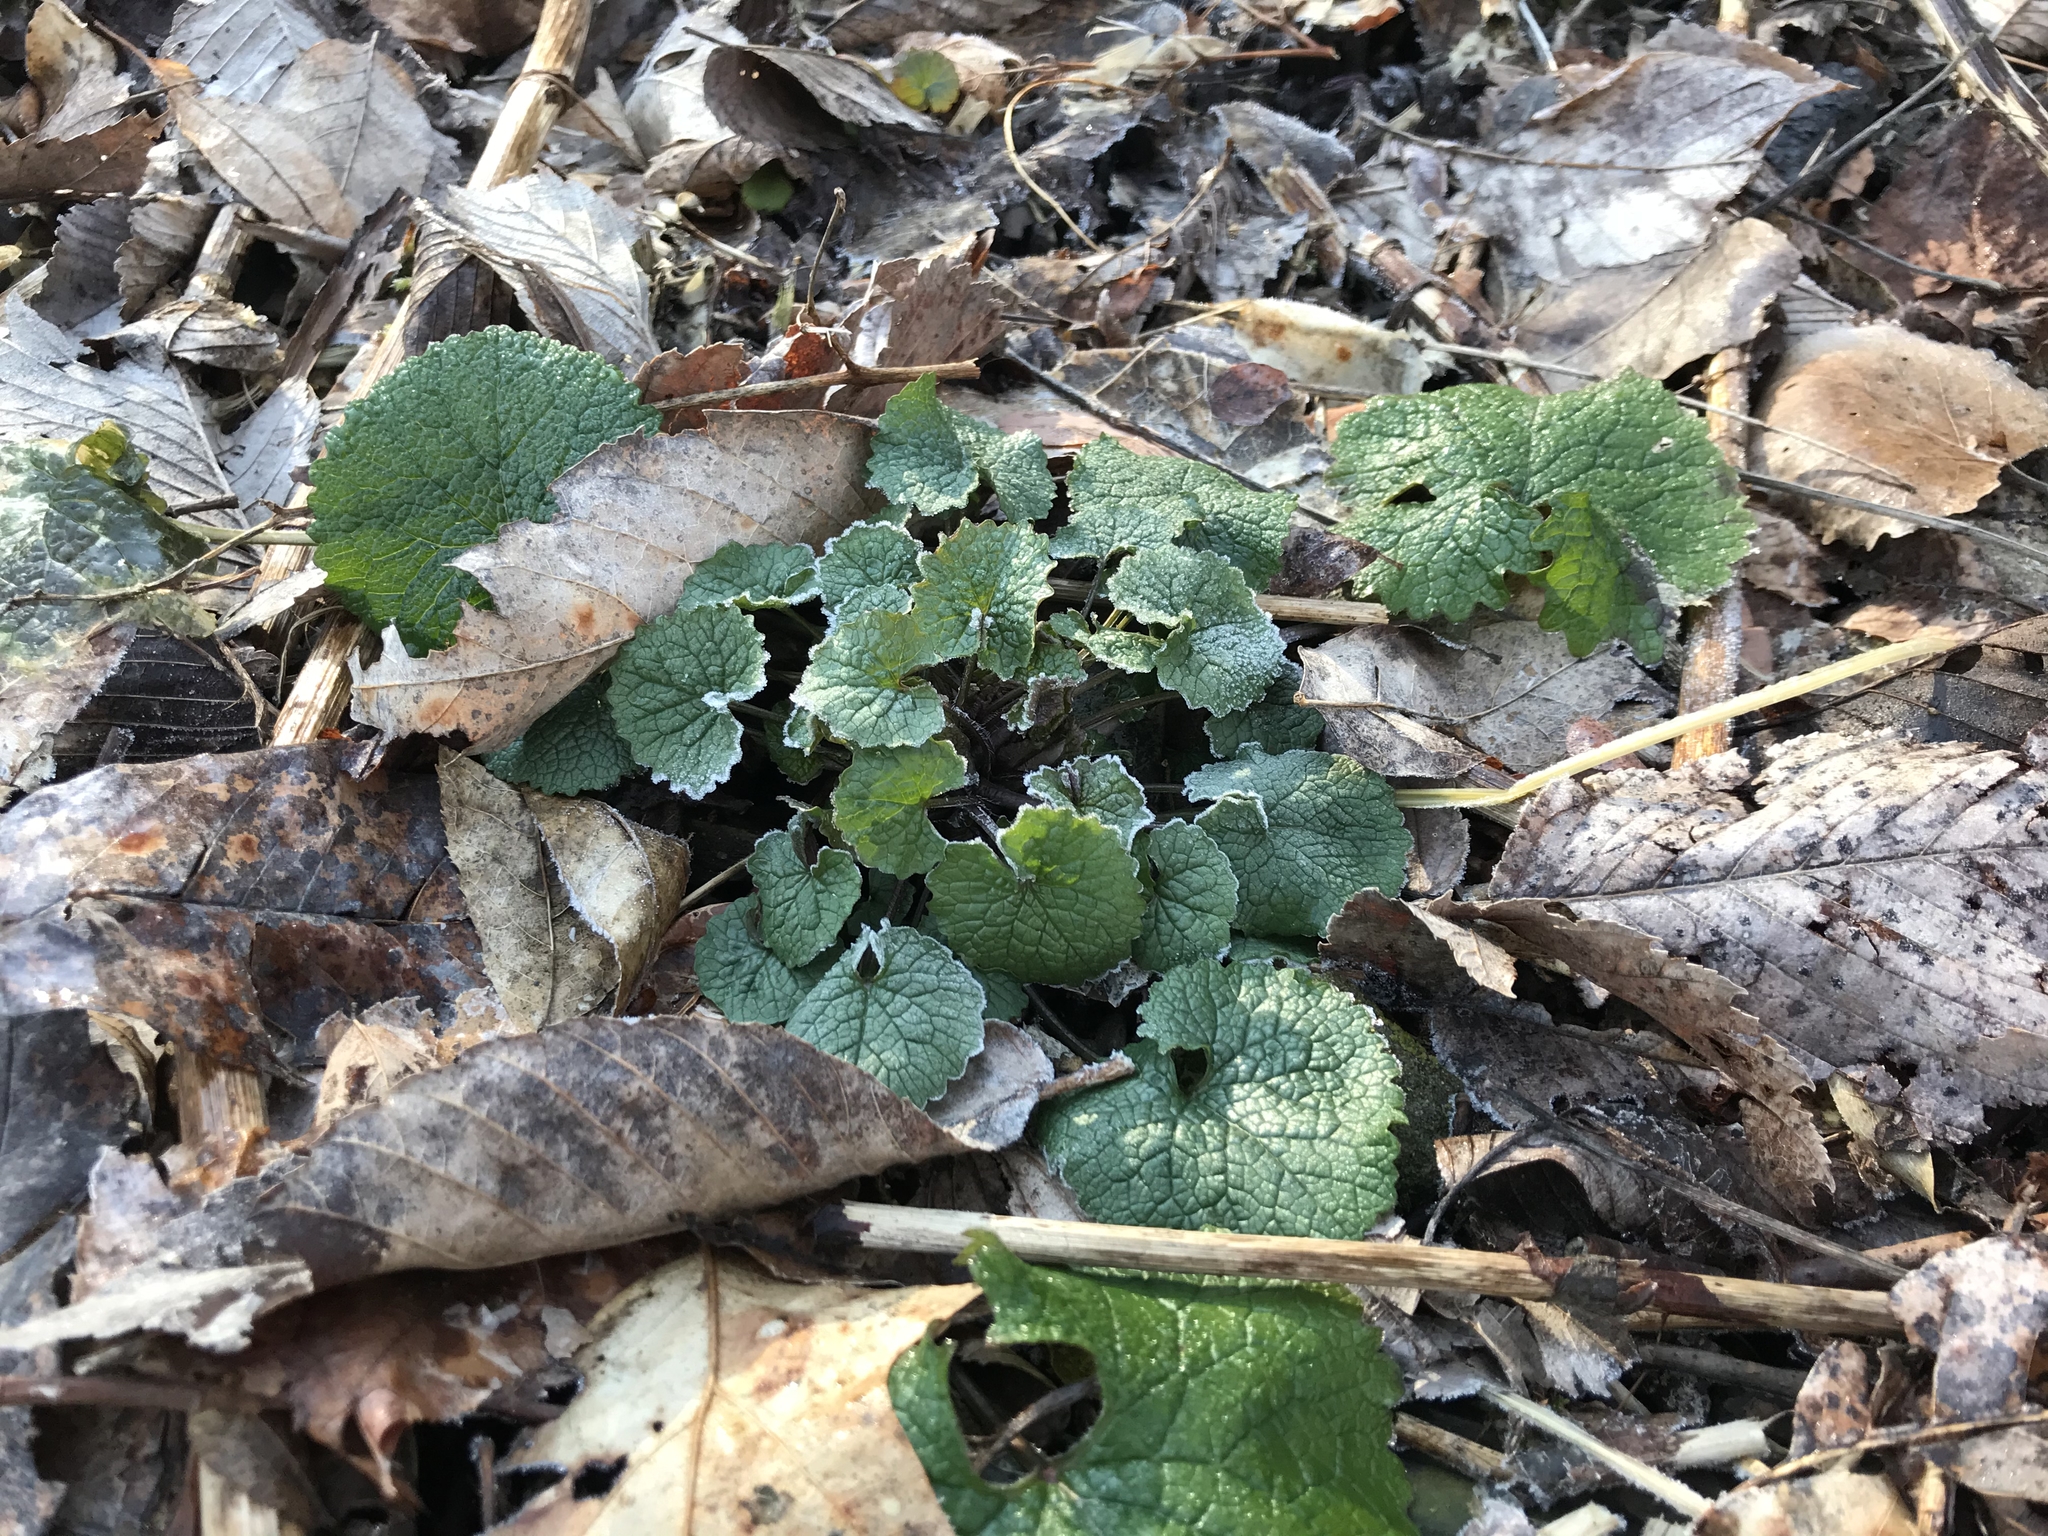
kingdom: Plantae
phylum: Tracheophyta
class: Magnoliopsida
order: Brassicales
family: Brassicaceae
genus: Alliaria
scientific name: Alliaria petiolata
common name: Garlic mustard
